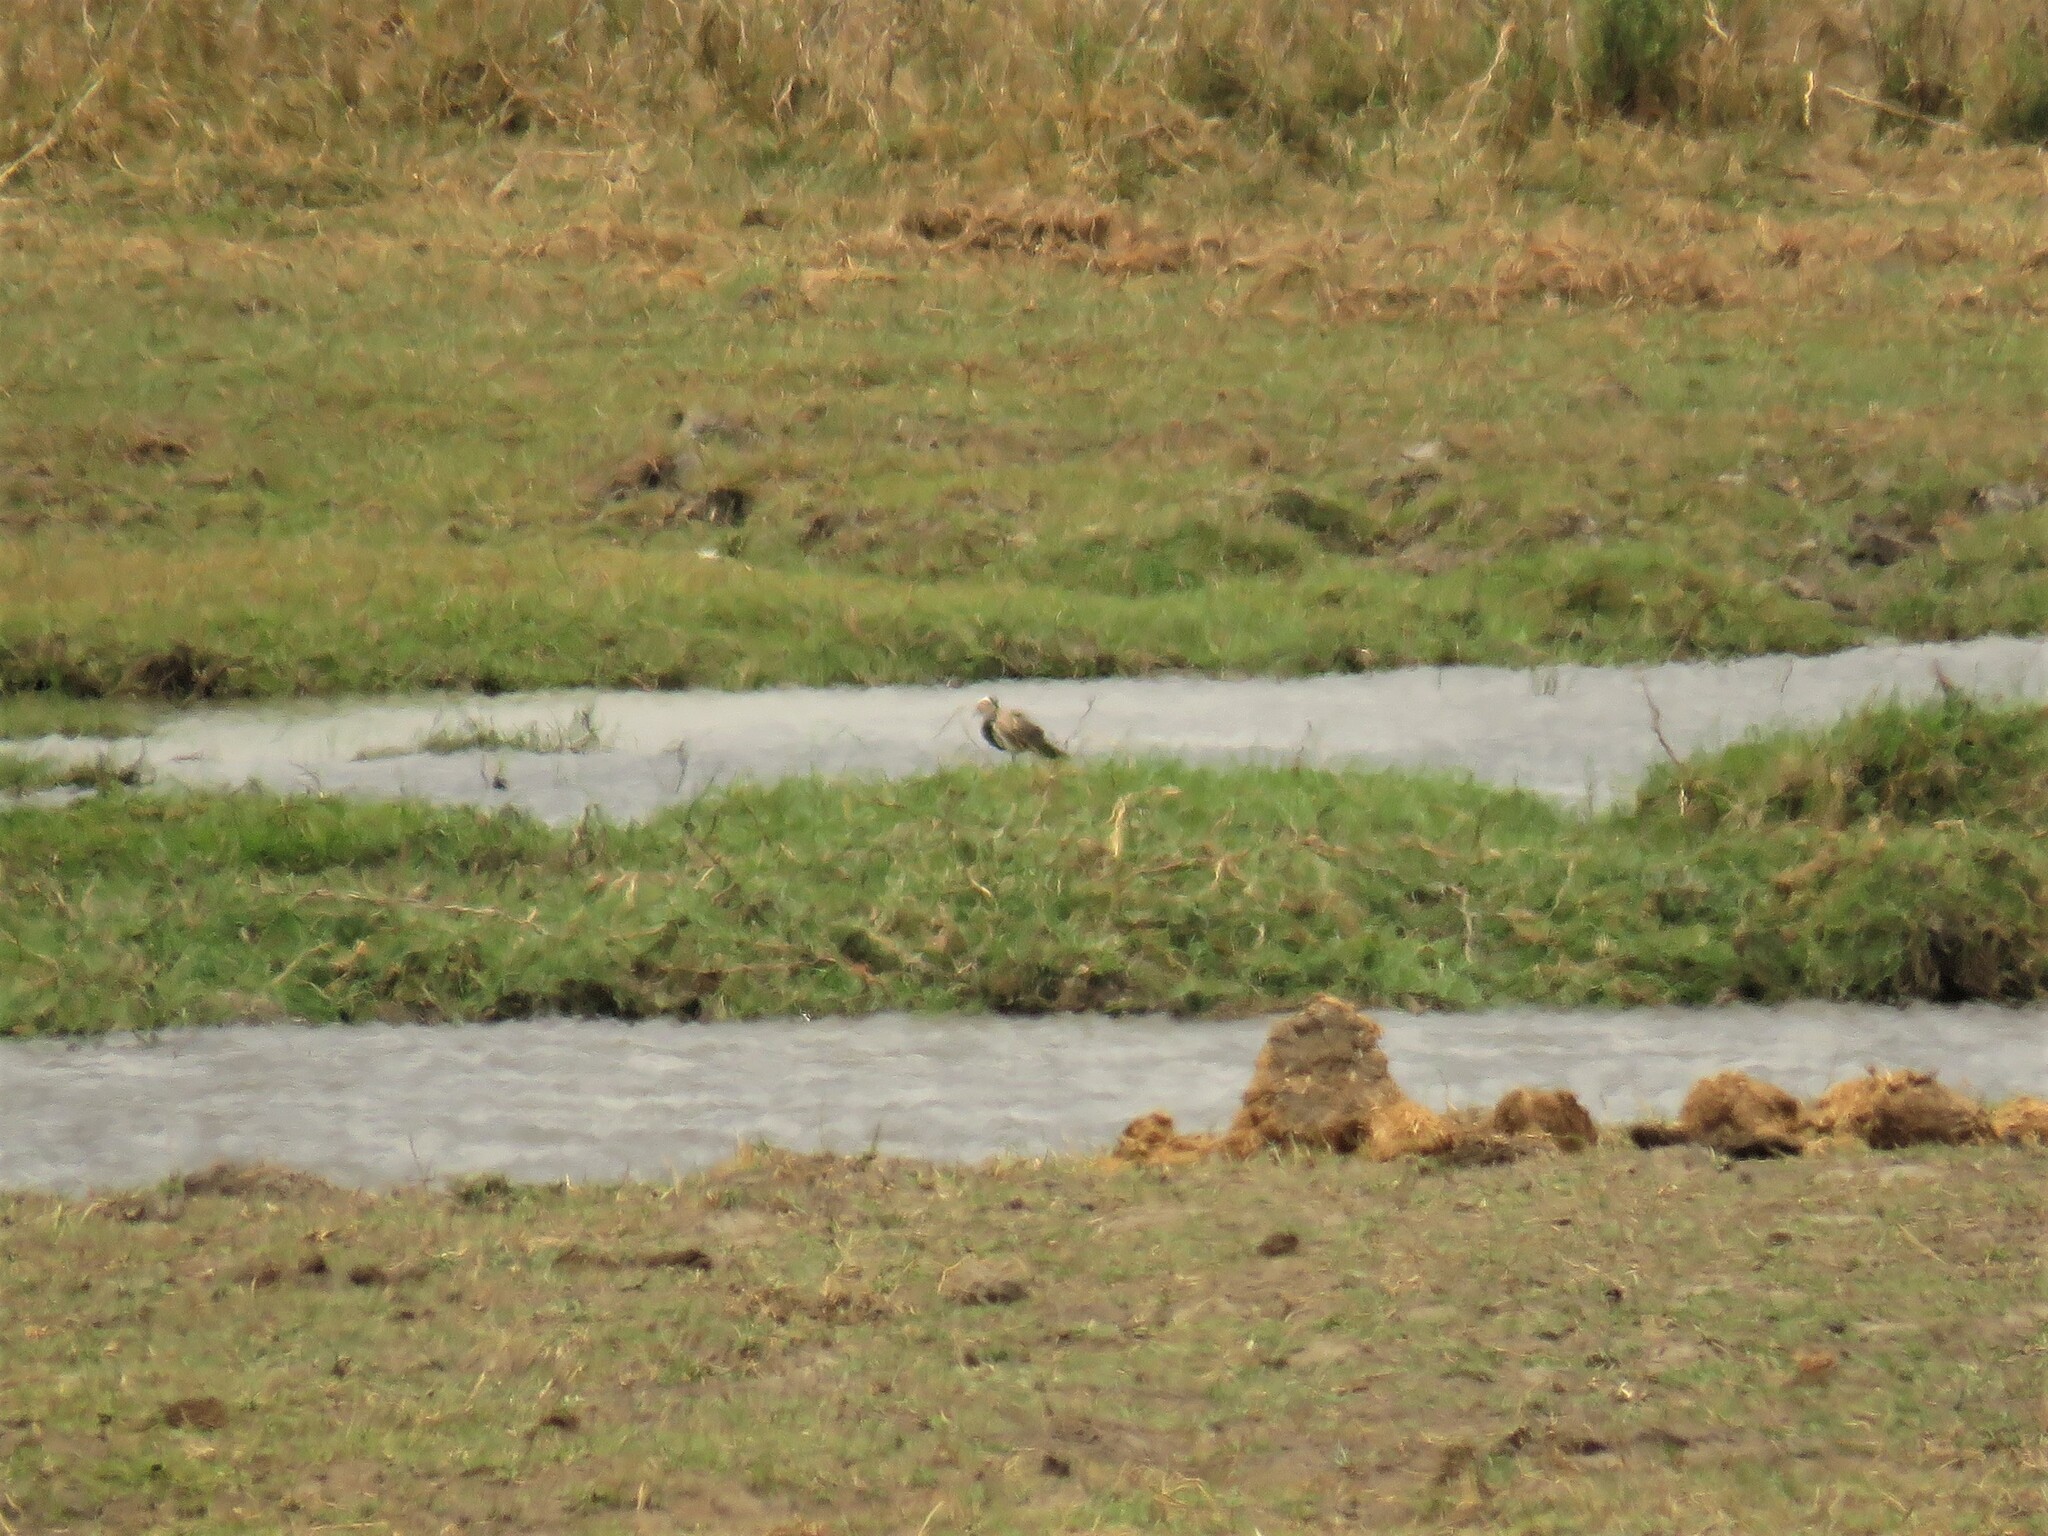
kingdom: Animalia
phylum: Chordata
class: Aves
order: Charadriiformes
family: Charadriidae
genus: Vanellus
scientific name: Vanellus crassirostris
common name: Long-toed lapwing
